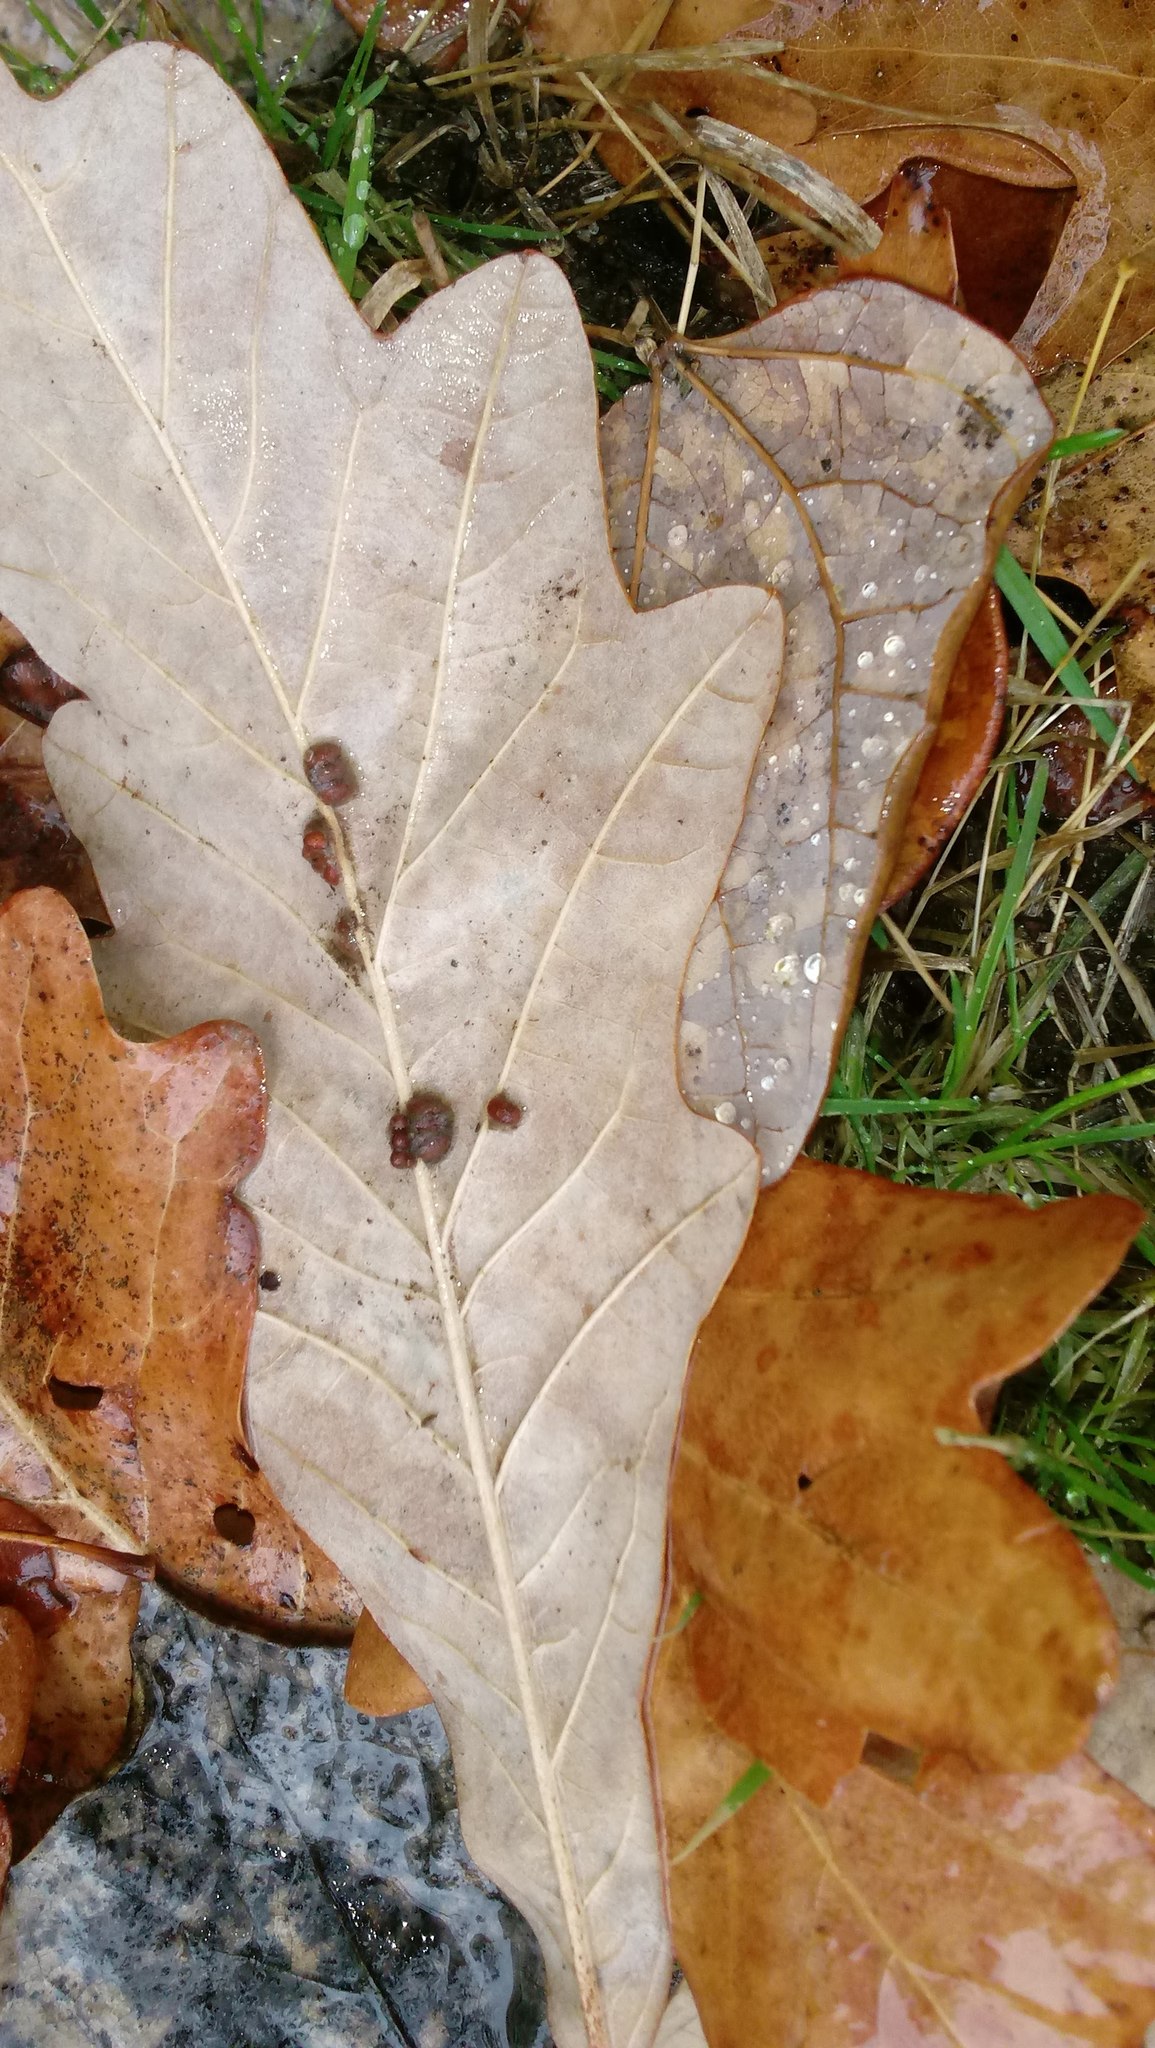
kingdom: Animalia
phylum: Arthropoda
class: Insecta
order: Hymenoptera
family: Cynipidae
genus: Andricus
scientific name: Andricus Druon ignotum
